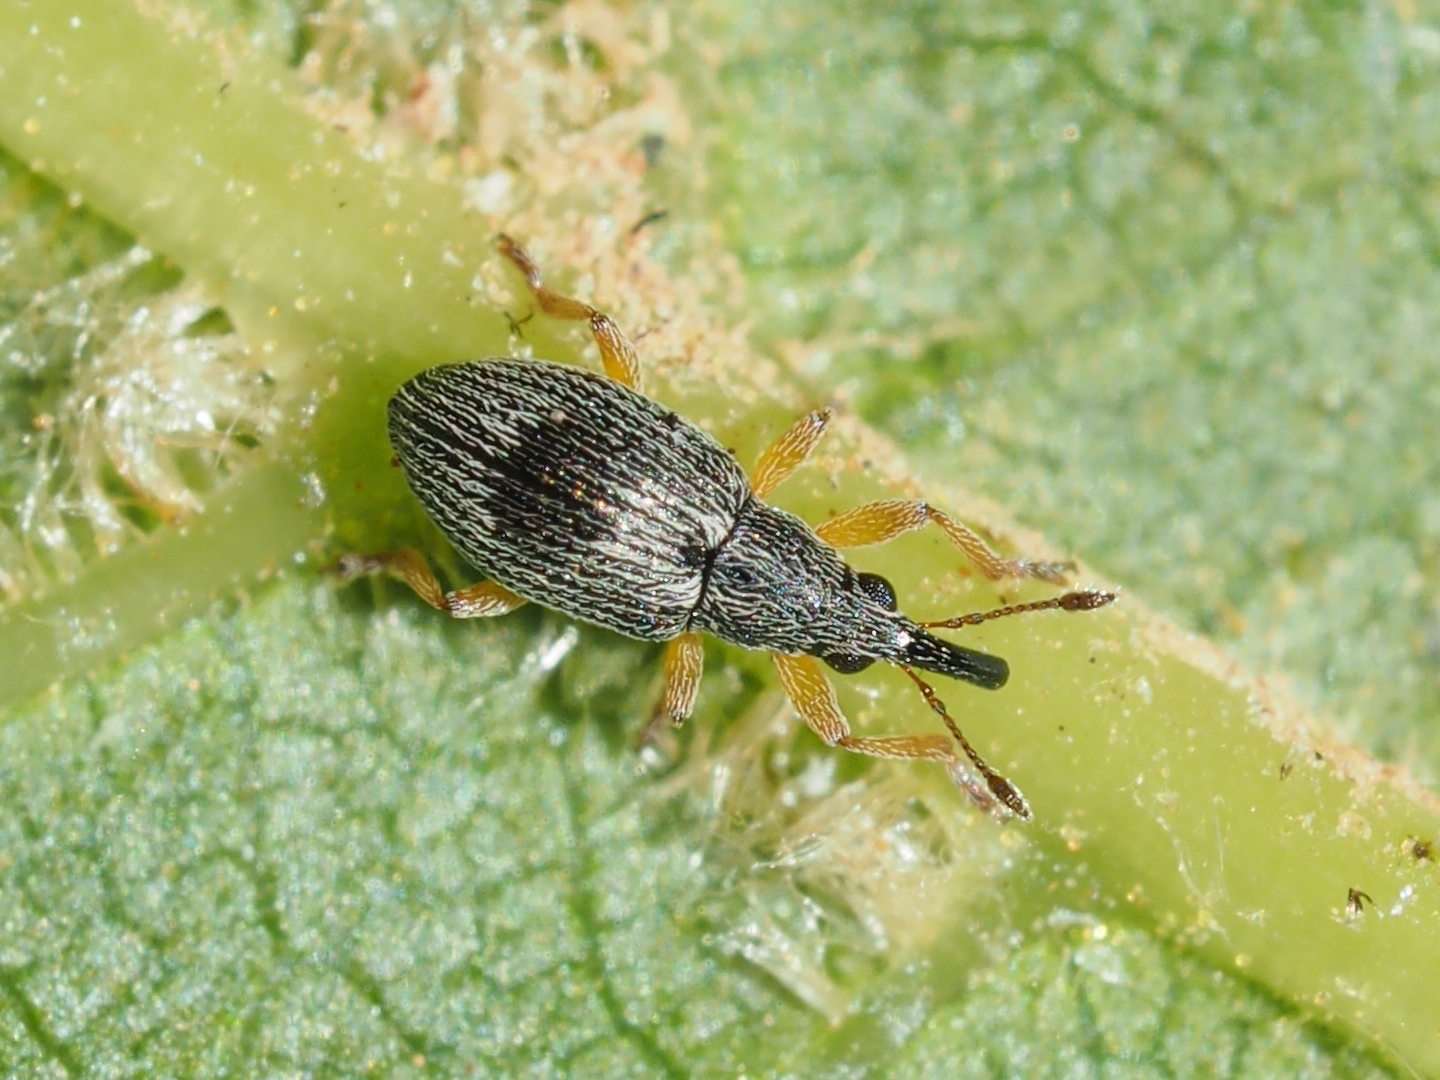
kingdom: Animalia
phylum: Arthropoda
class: Insecta
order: Coleoptera
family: Apionidae
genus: Kalcapion
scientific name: Kalcapion semivittatum
